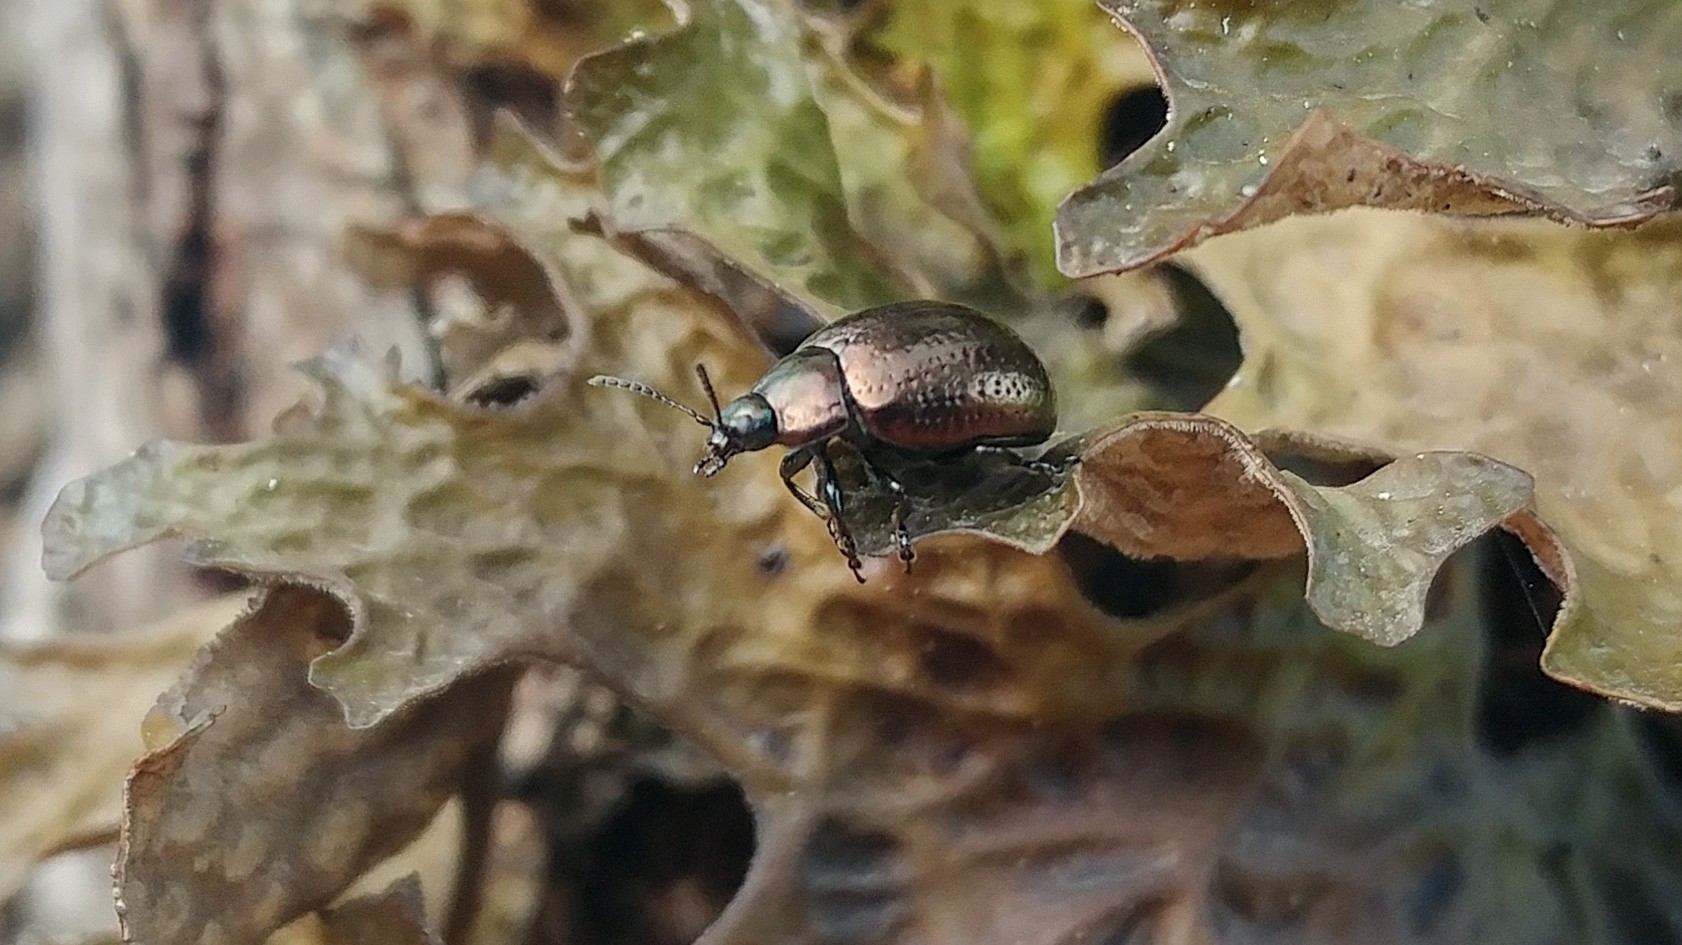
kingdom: Animalia
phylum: Arthropoda
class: Insecta
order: Coleoptera
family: Chrysomelidae
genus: Chrysolina
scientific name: Chrysolina hyperici
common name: St. johnswort beetle
